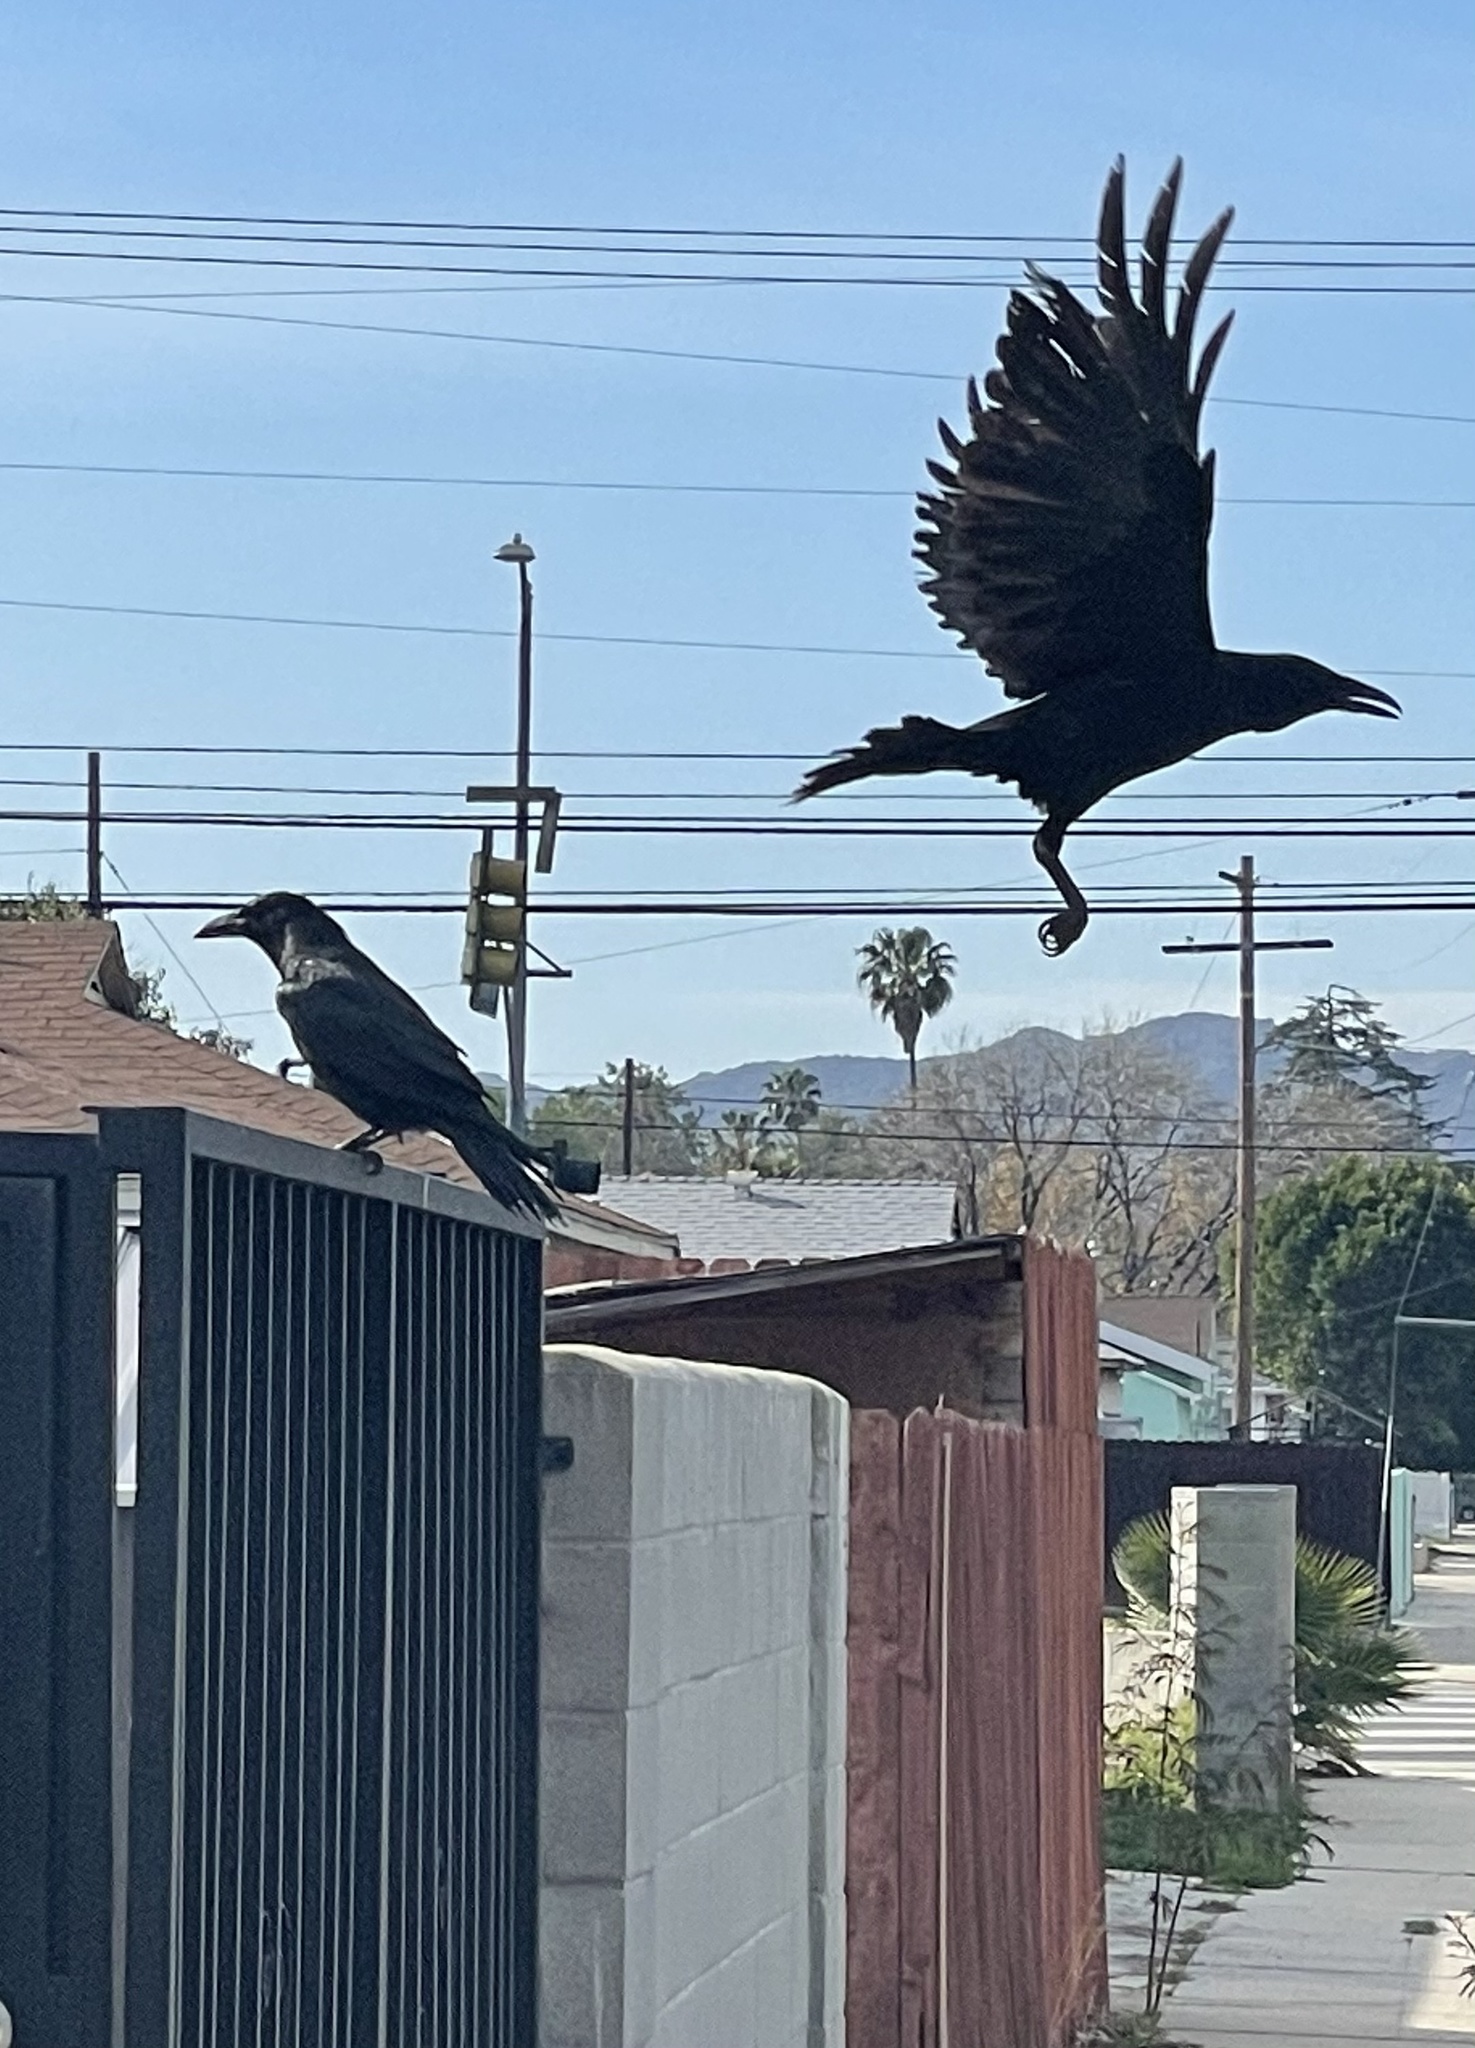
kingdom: Animalia
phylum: Chordata
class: Aves
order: Passeriformes
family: Corvidae
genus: Corvus
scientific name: Corvus corax
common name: Common raven
